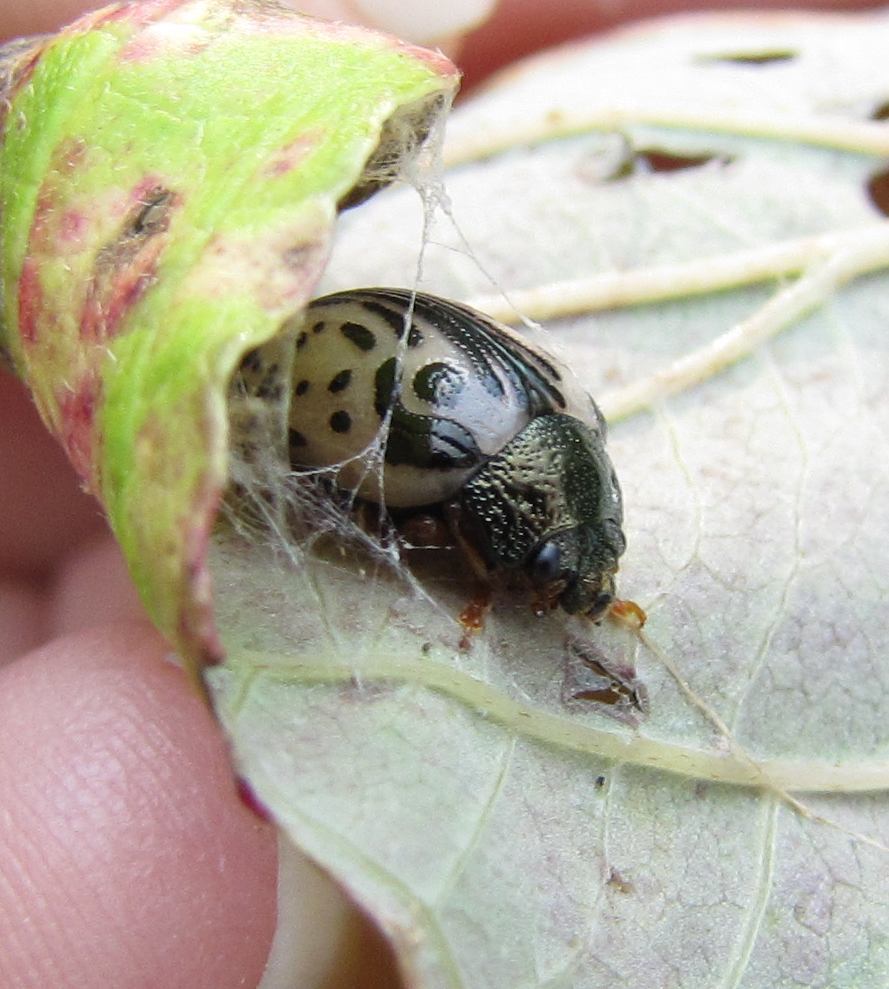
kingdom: Animalia
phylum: Arthropoda
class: Insecta
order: Coleoptera
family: Chrysomelidae
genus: Calligrapha
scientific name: Calligrapha vicina
